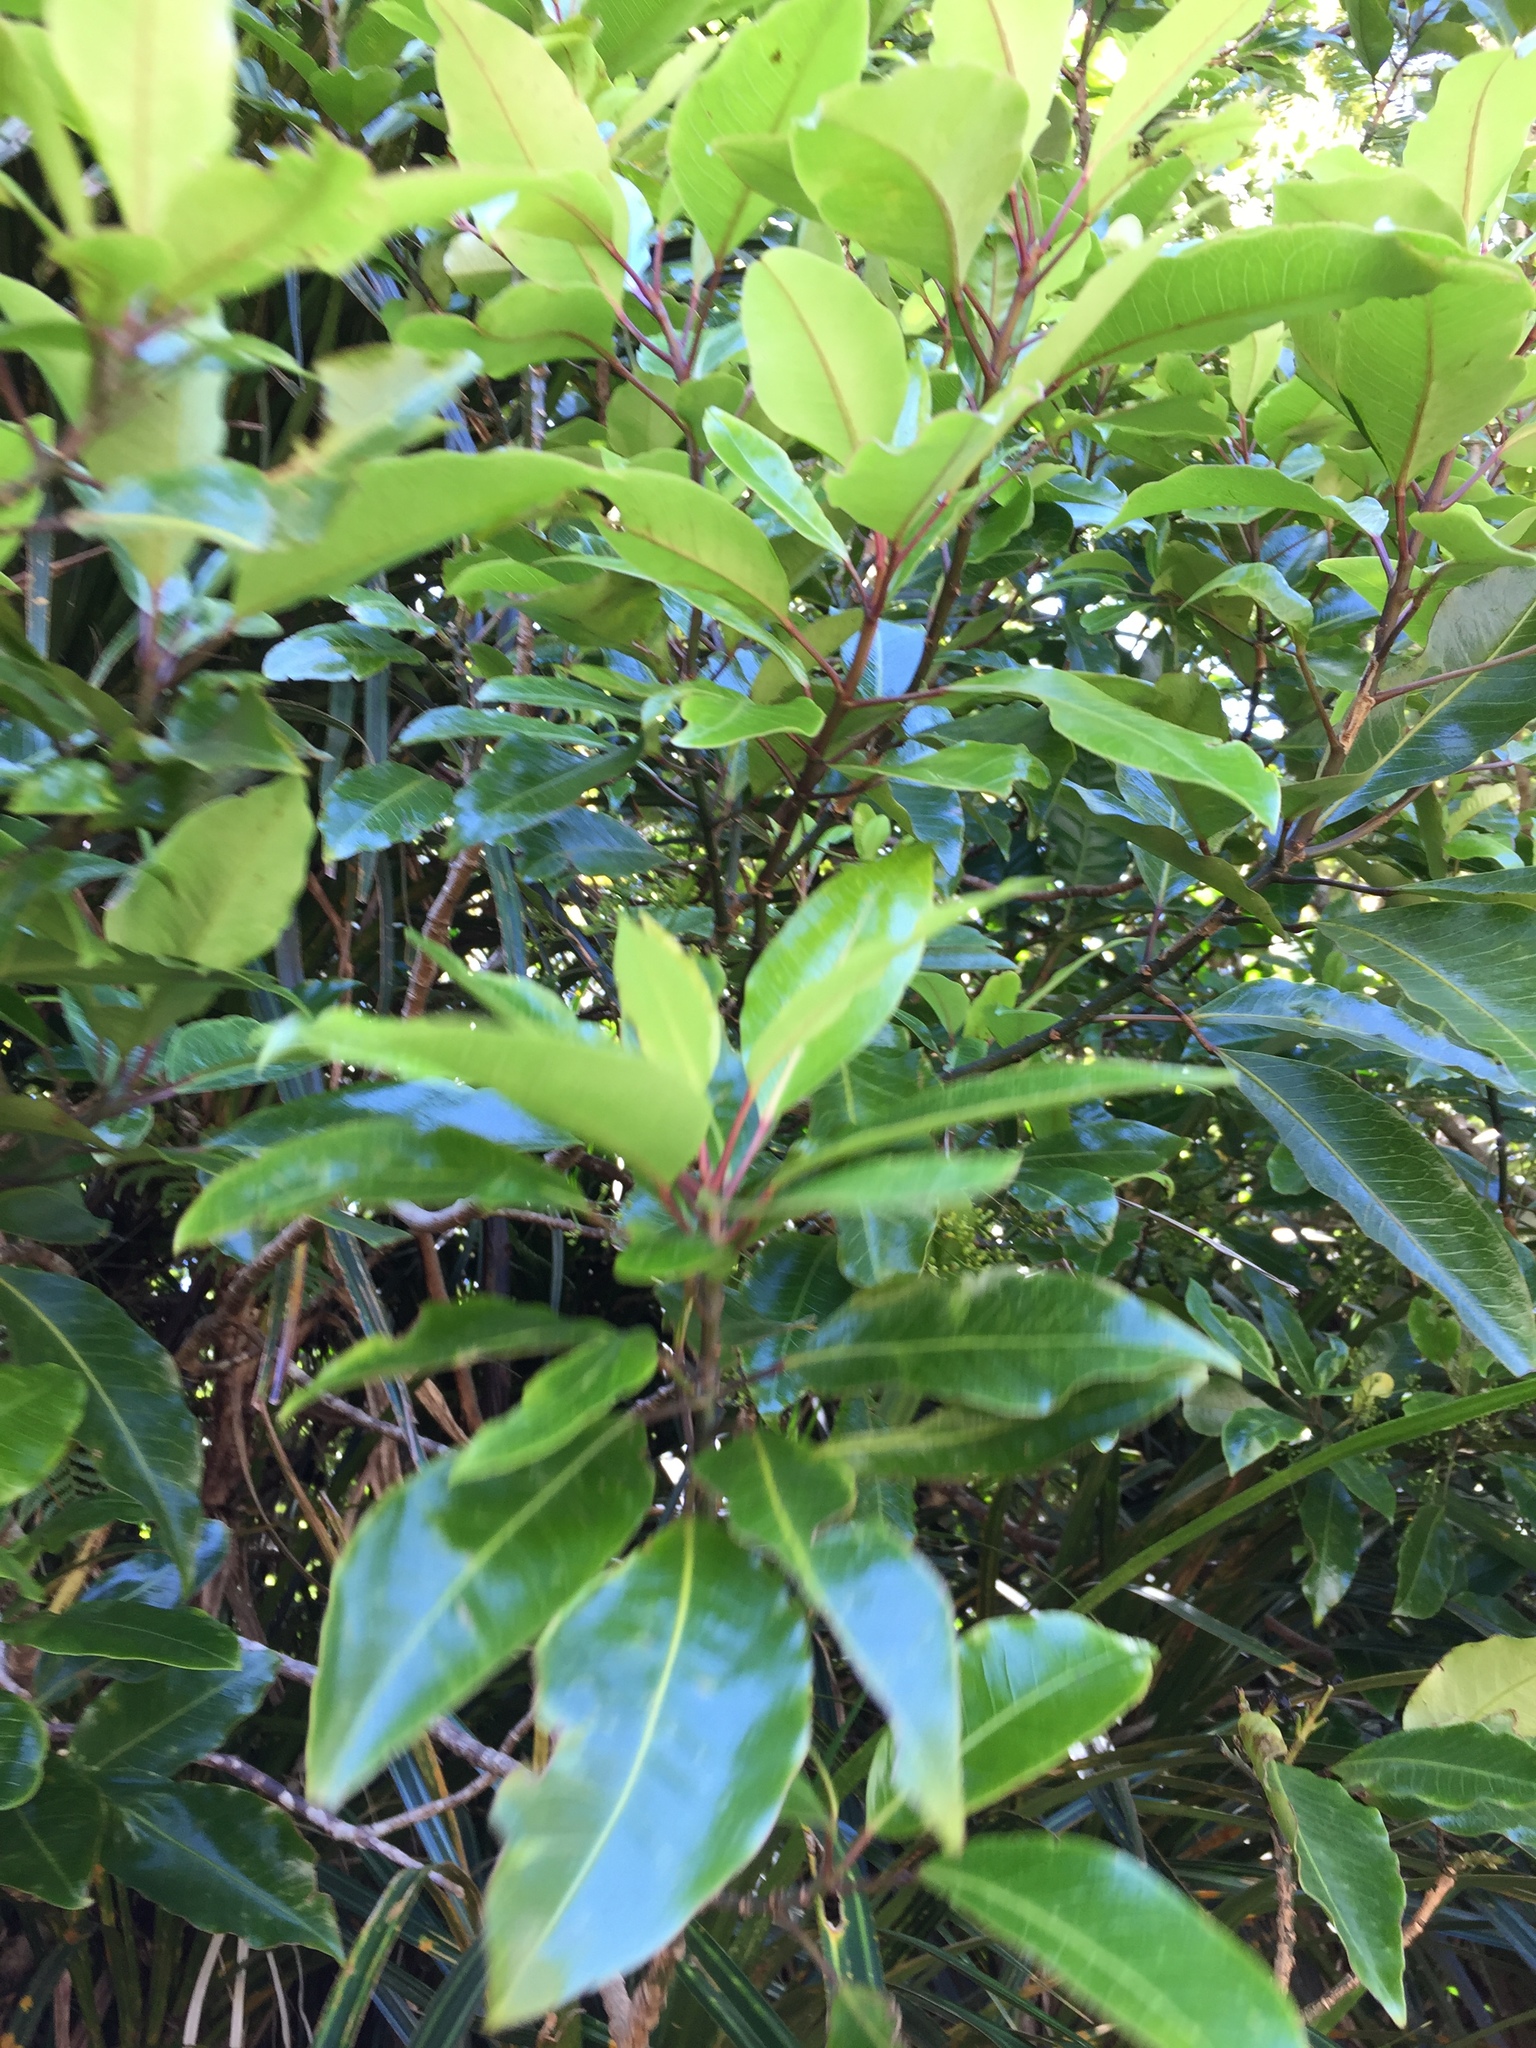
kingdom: Plantae
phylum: Tracheophyta
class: Magnoliopsida
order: Apiales
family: Araliaceae
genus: Raukaua
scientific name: Raukaua edgerleyi
